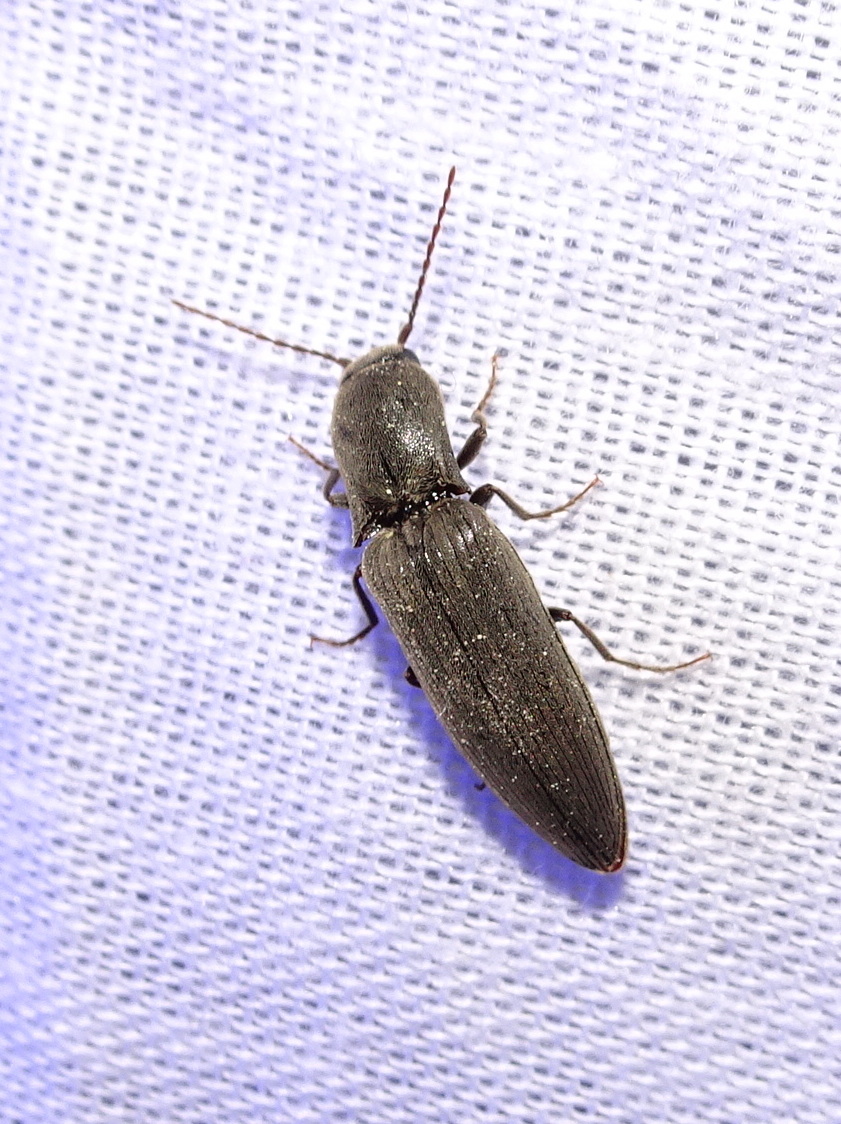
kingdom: Animalia
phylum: Arthropoda
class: Insecta
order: Coleoptera
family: Elateridae
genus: Agriotes
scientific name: Agriotes pilosellus
